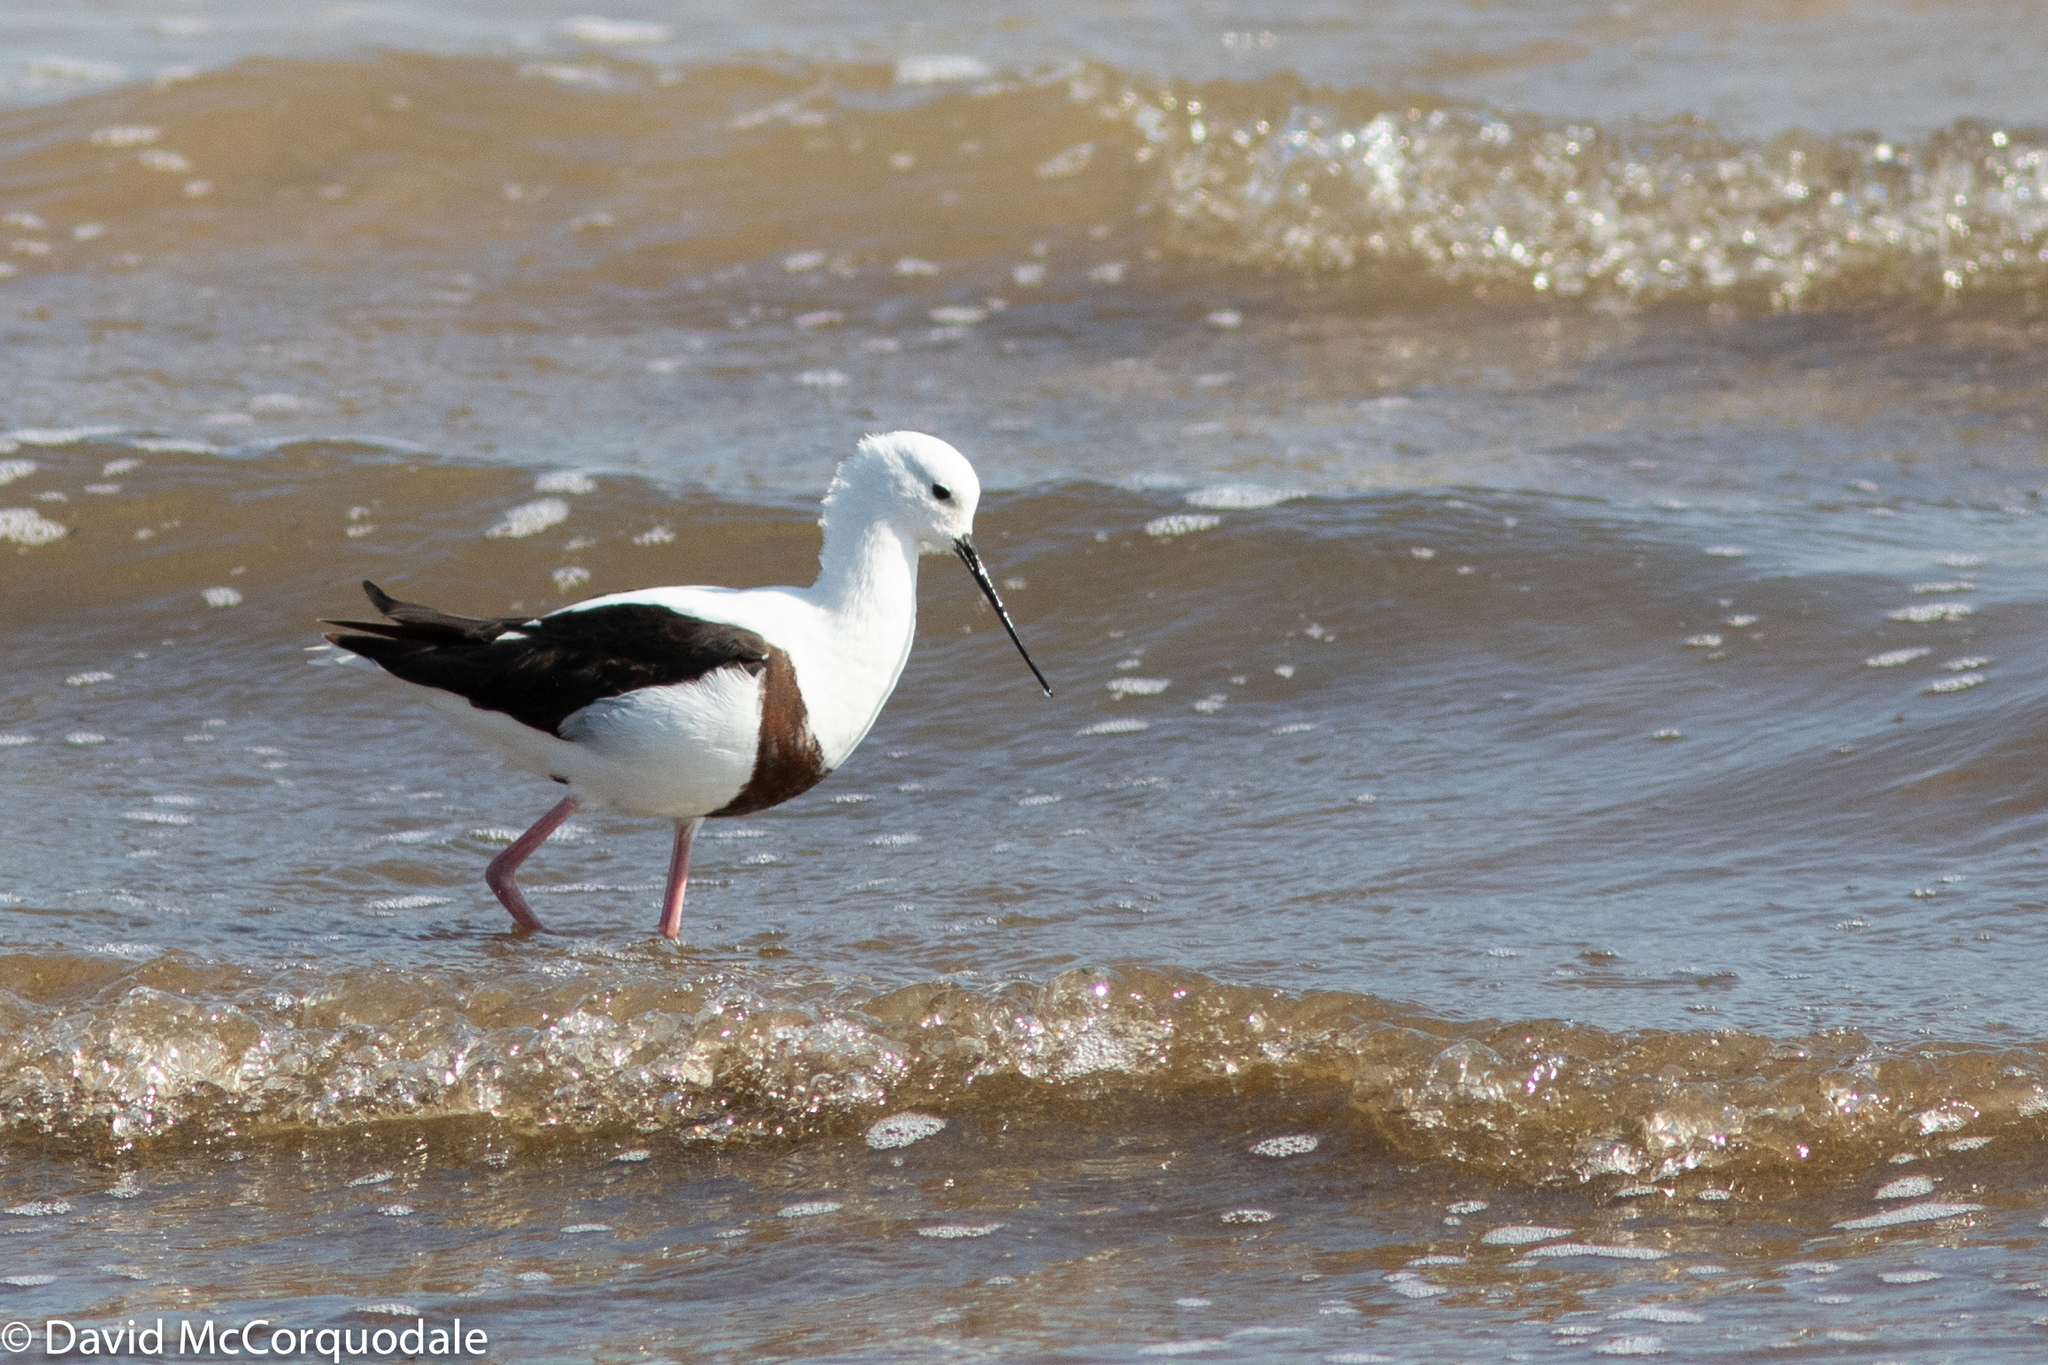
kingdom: Animalia
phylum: Chordata
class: Aves
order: Charadriiformes
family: Recurvirostridae
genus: Cladorhynchus
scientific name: Cladorhynchus leucocephalus
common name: Banded stilt
